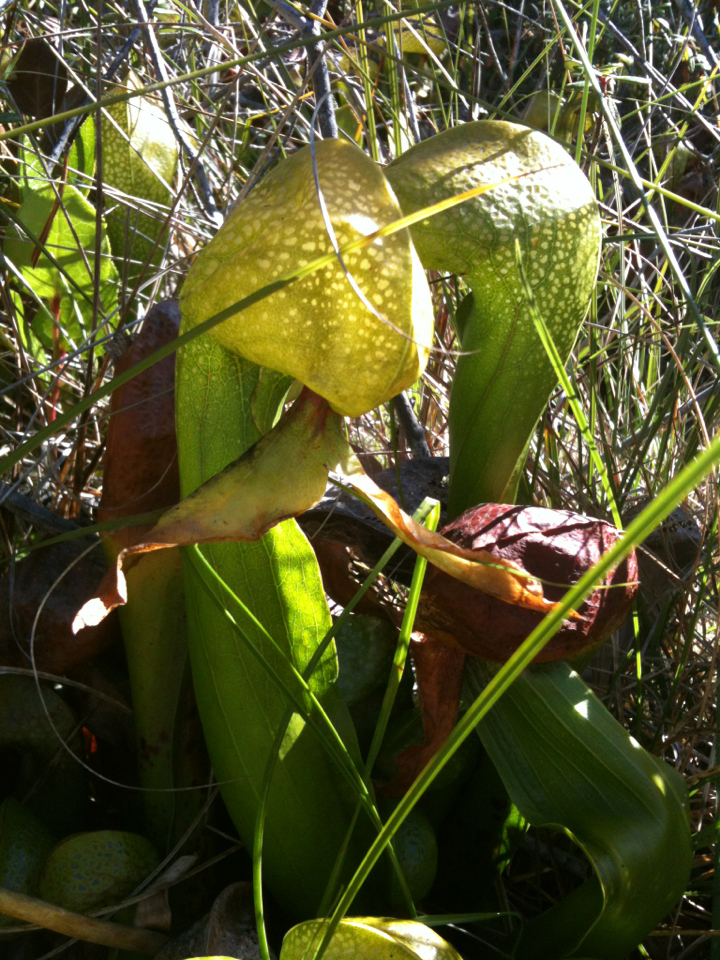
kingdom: Plantae
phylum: Tracheophyta
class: Magnoliopsida
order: Ericales
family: Sarraceniaceae
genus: Darlingtonia
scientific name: Darlingtonia californica
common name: California pitcher plant
